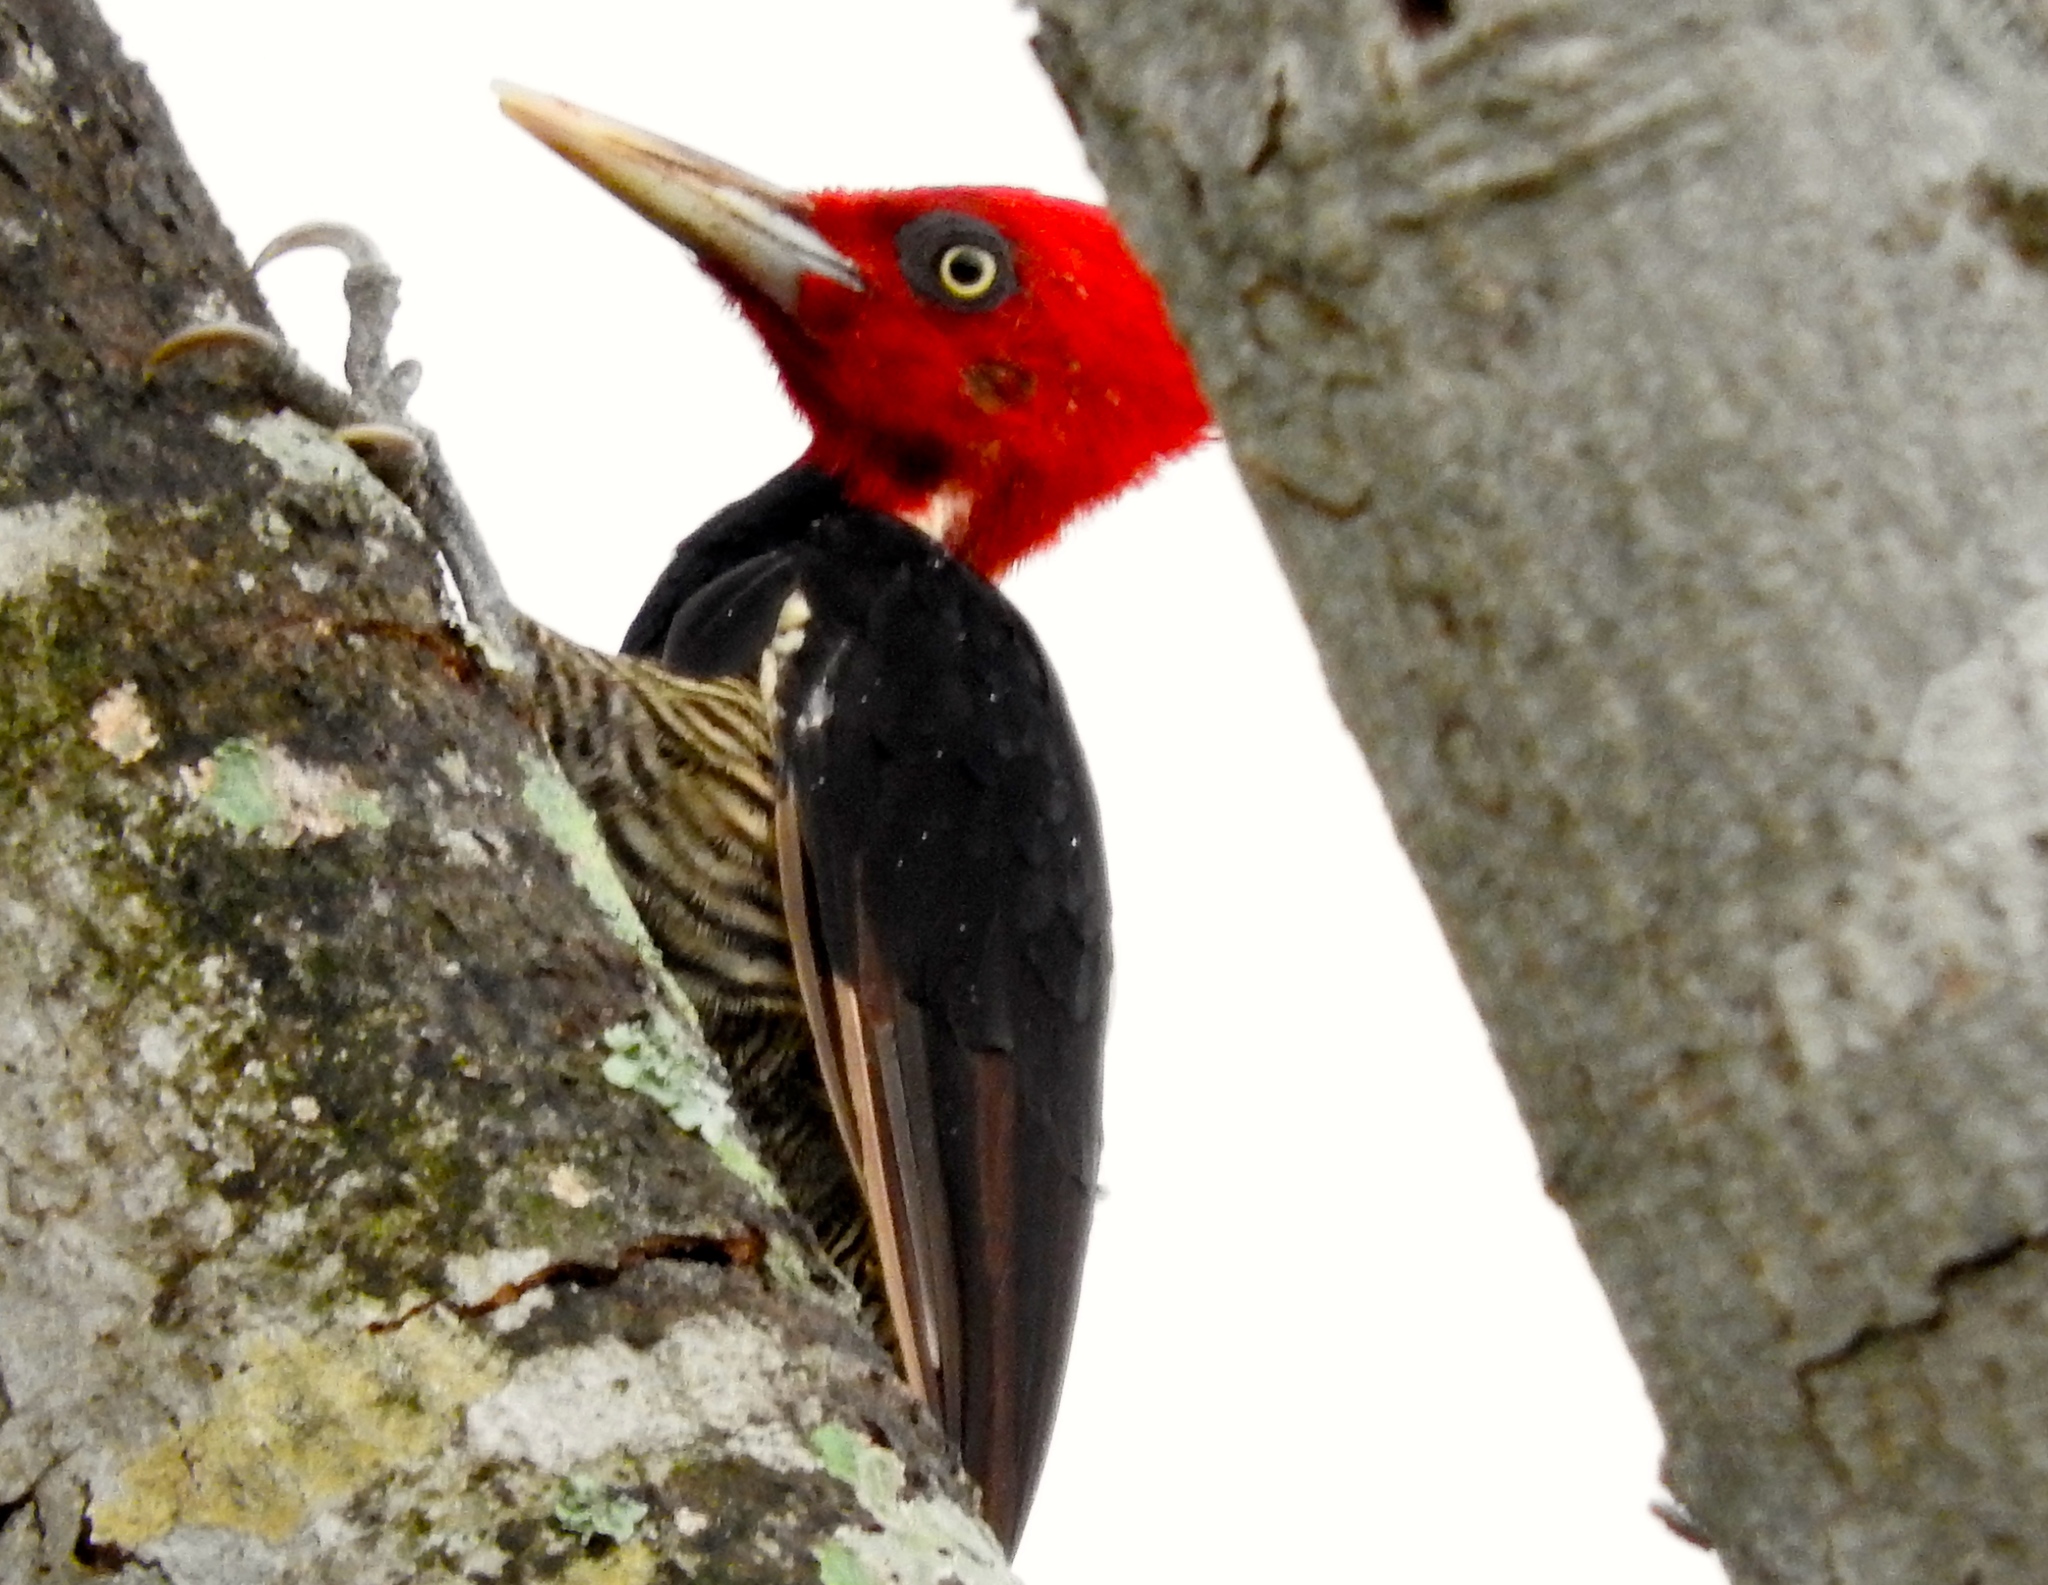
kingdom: Animalia
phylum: Chordata
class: Aves
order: Piciformes
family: Picidae
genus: Campephilus
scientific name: Campephilus guatemalensis
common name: Pale-billed woodpecker
